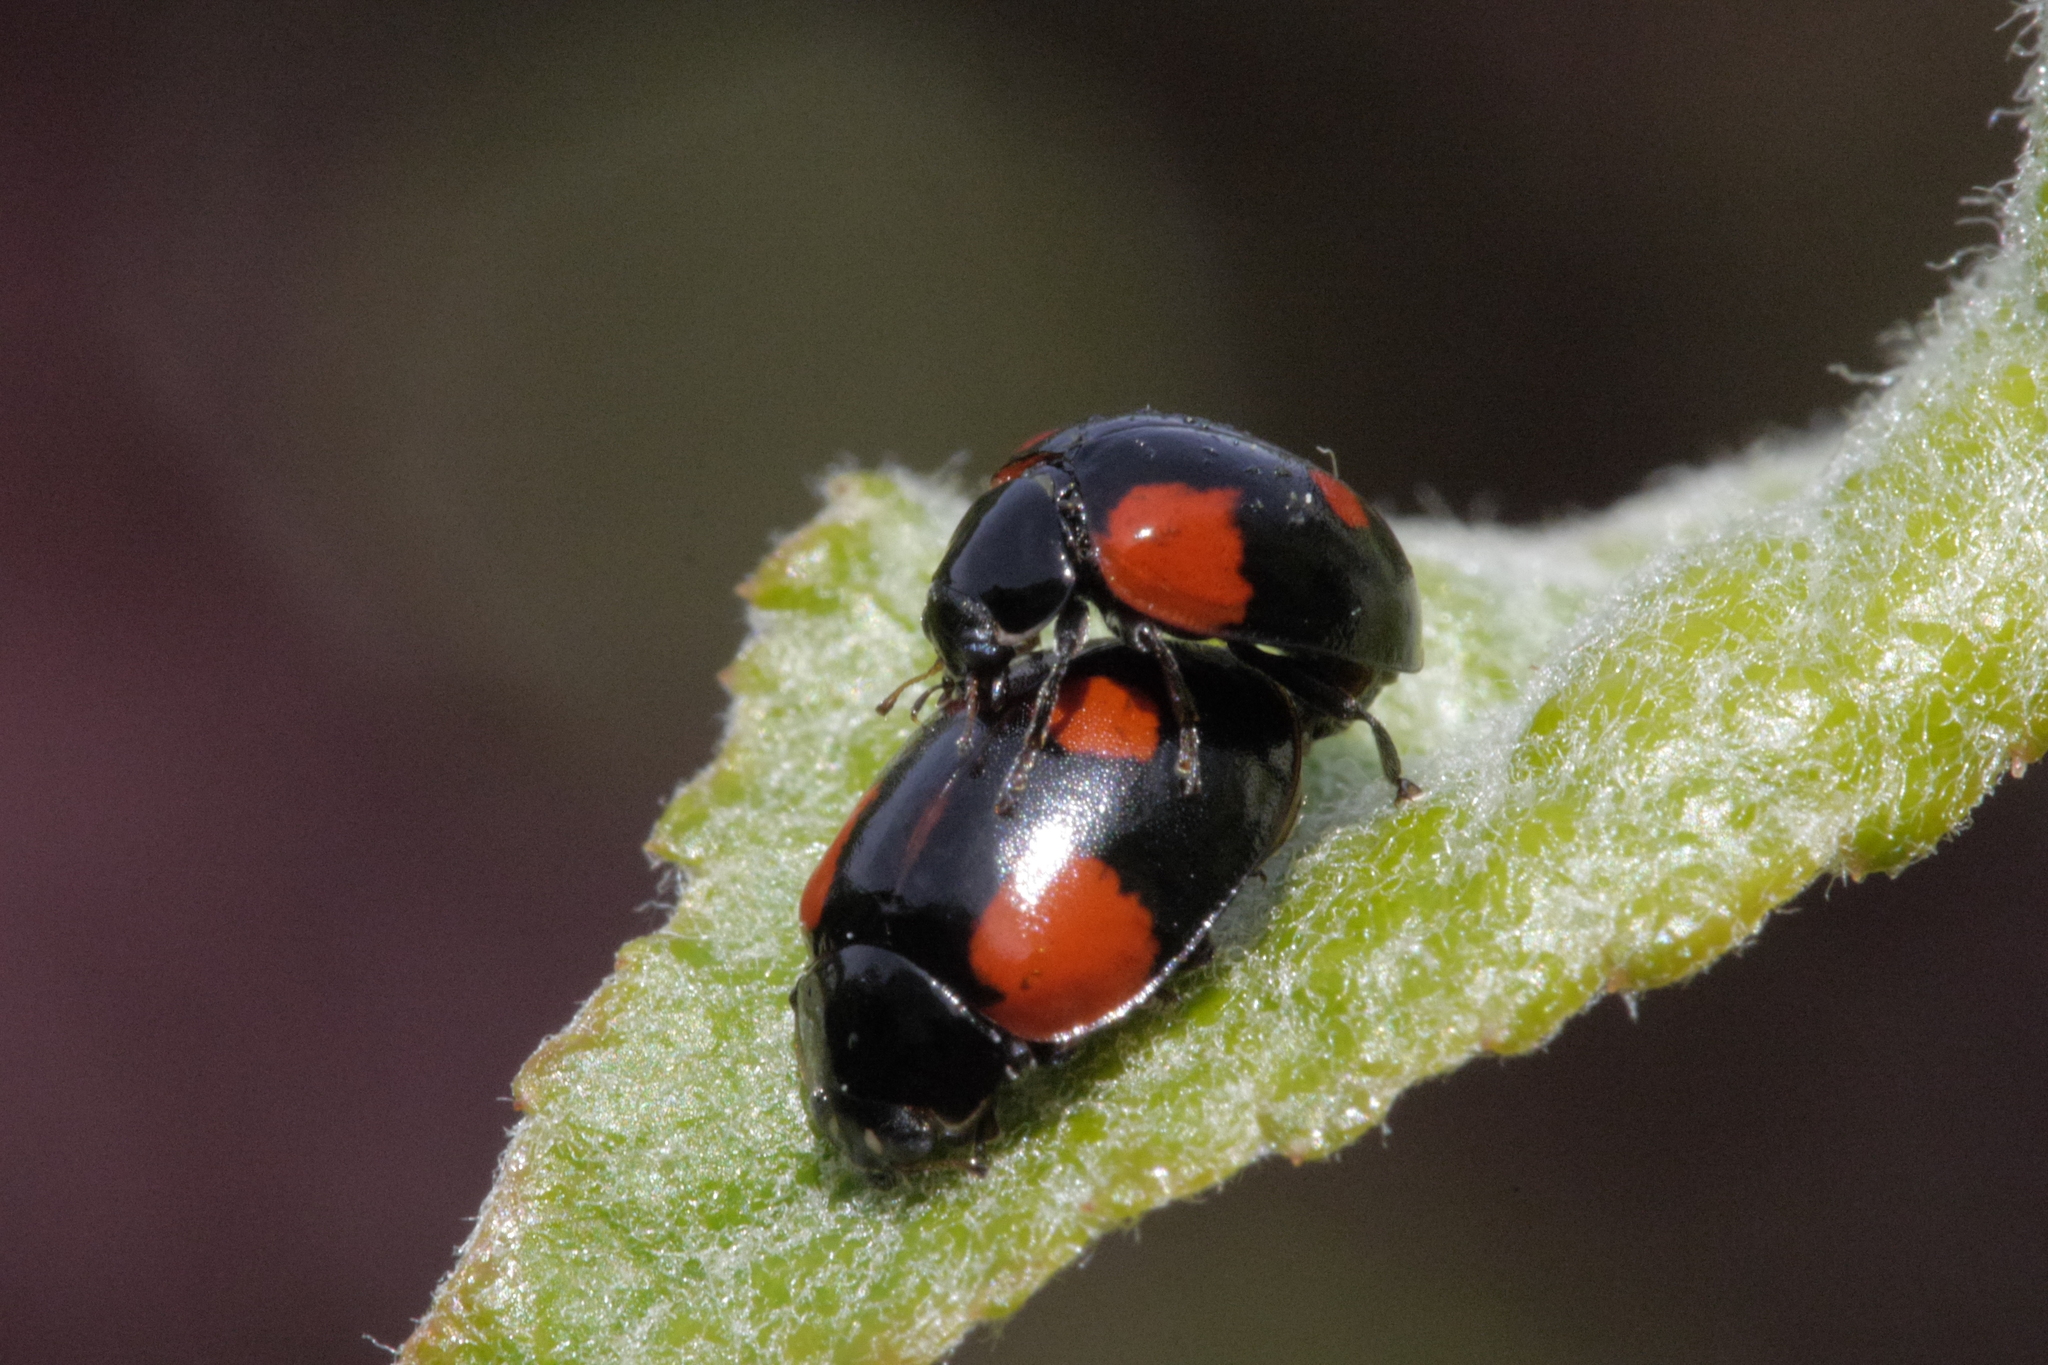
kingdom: Animalia
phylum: Arthropoda
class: Insecta
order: Coleoptera
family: Coccinellidae
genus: Adalia
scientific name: Adalia bipunctata
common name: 2-spot ladybird
